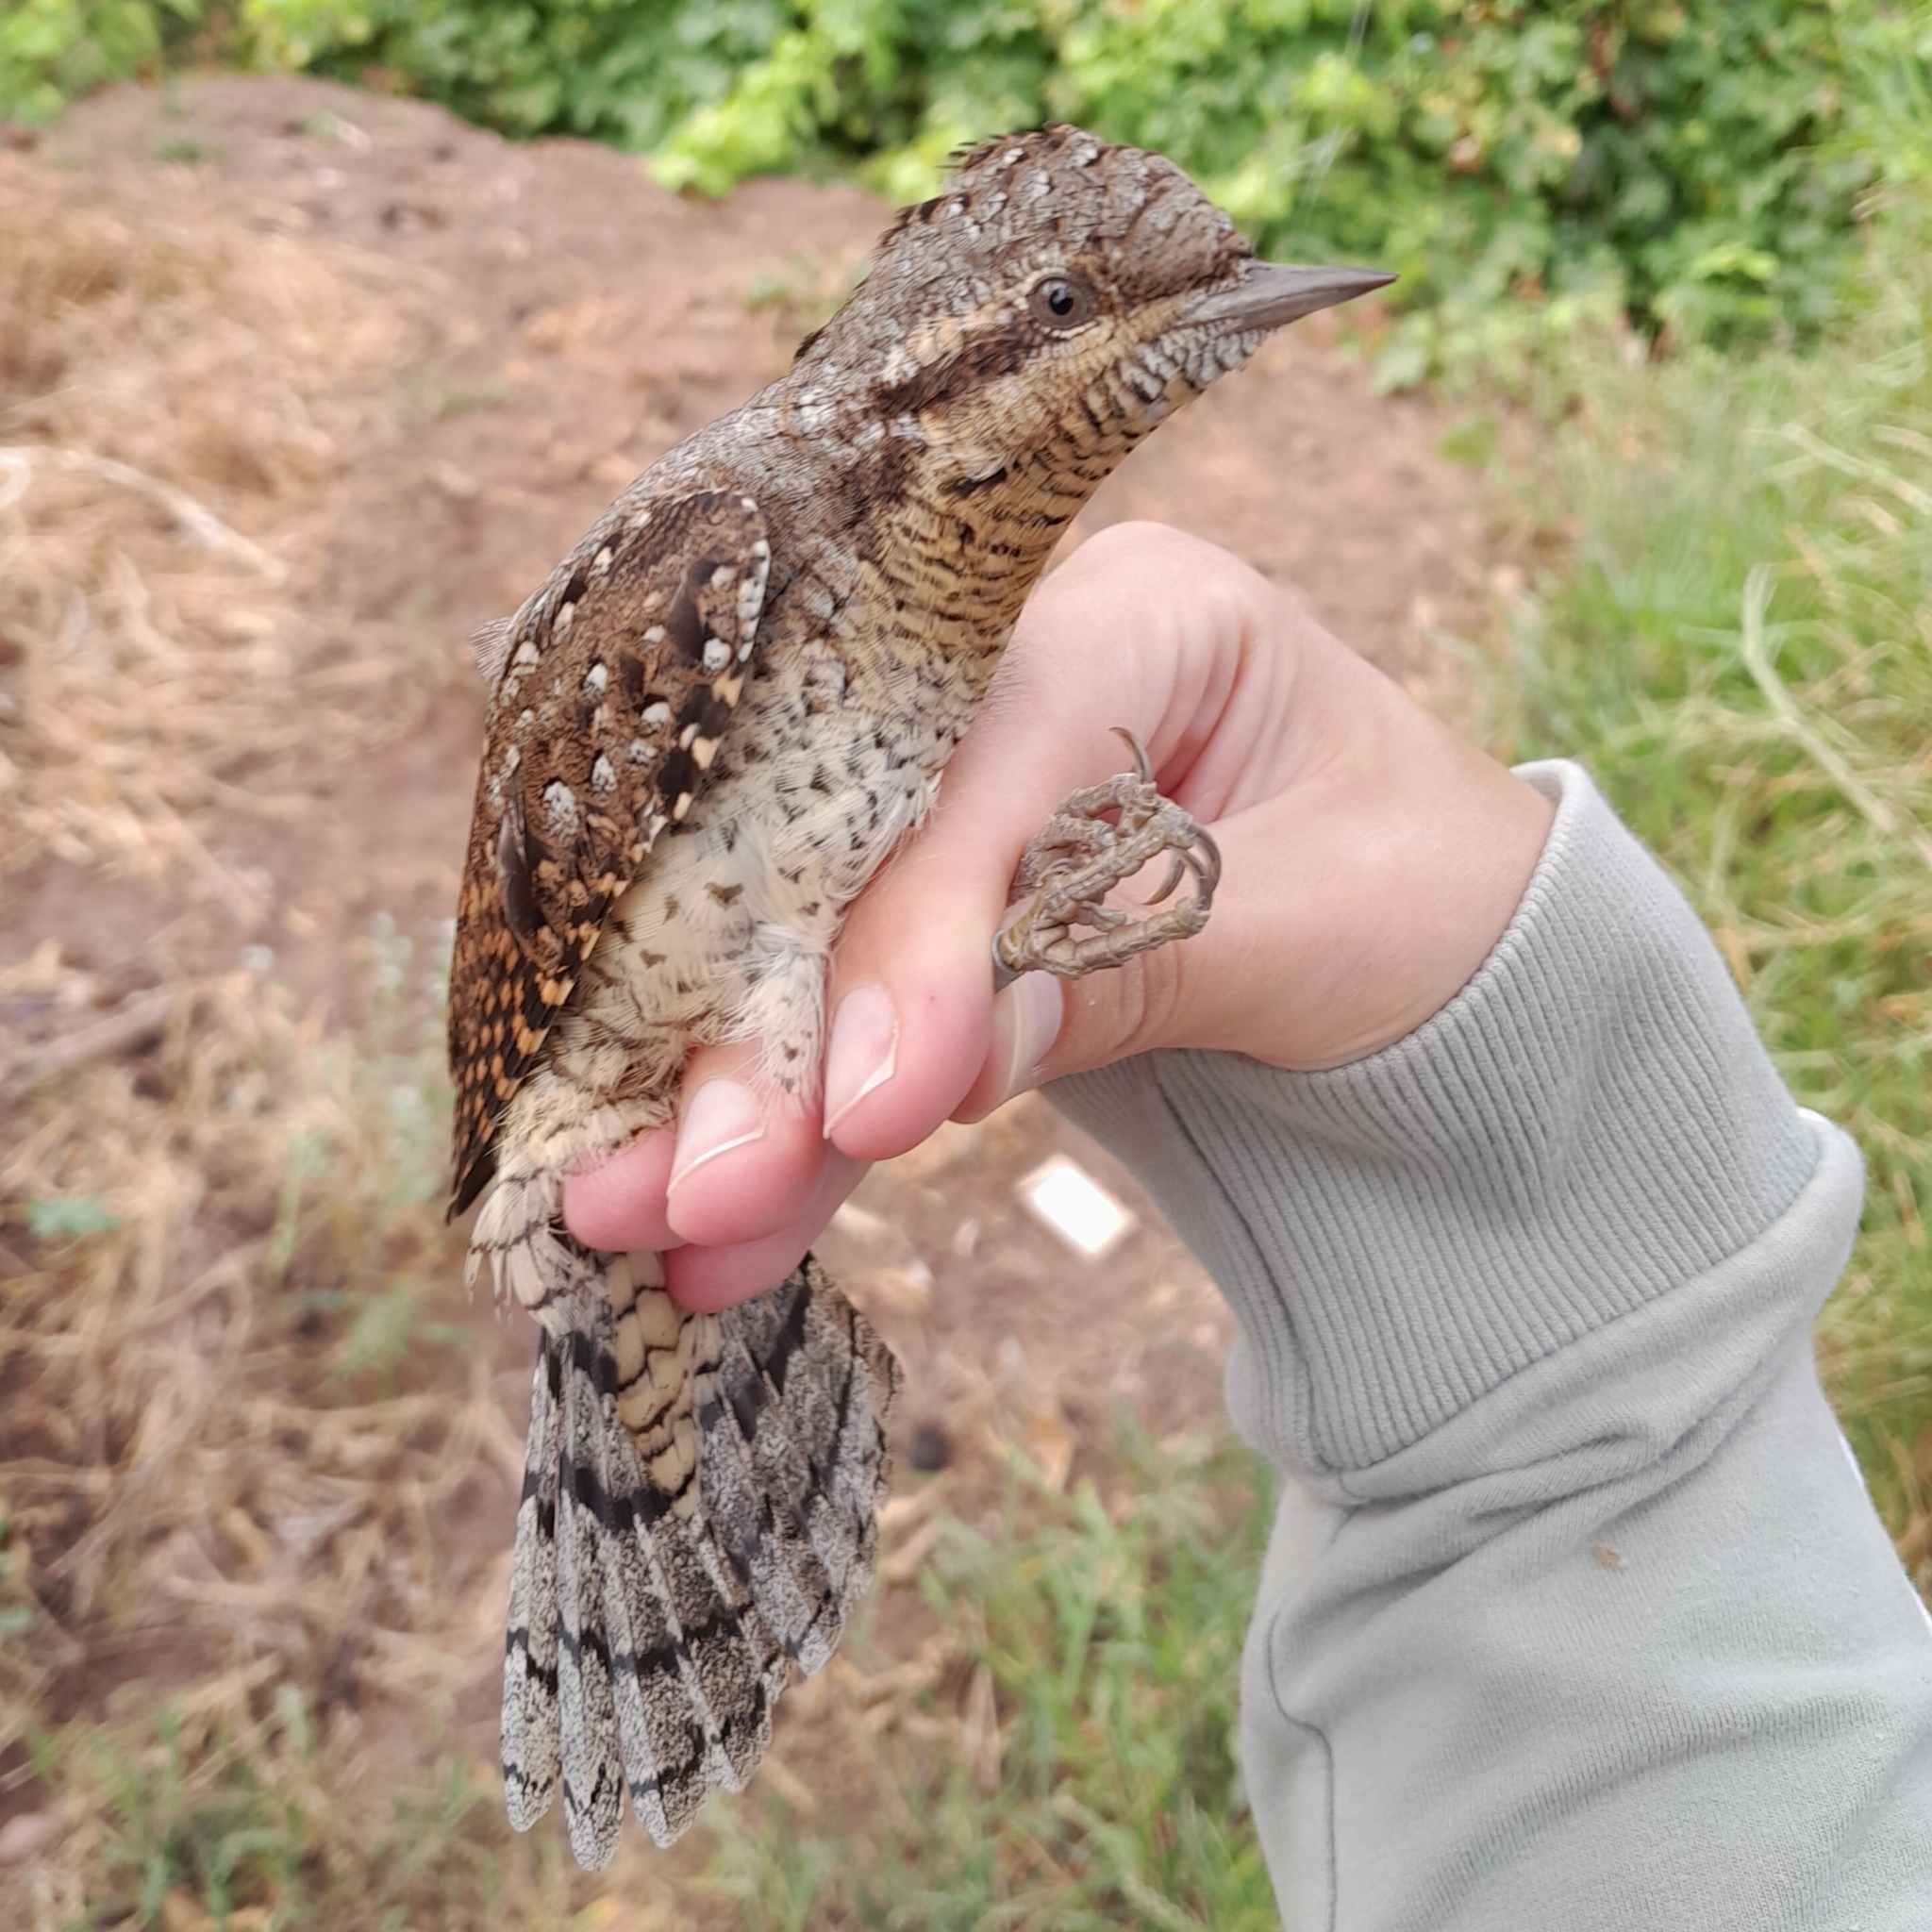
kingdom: Animalia
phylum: Chordata
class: Aves
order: Piciformes
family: Picidae
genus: Jynx
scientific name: Jynx torquilla
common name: Eurasian wryneck
